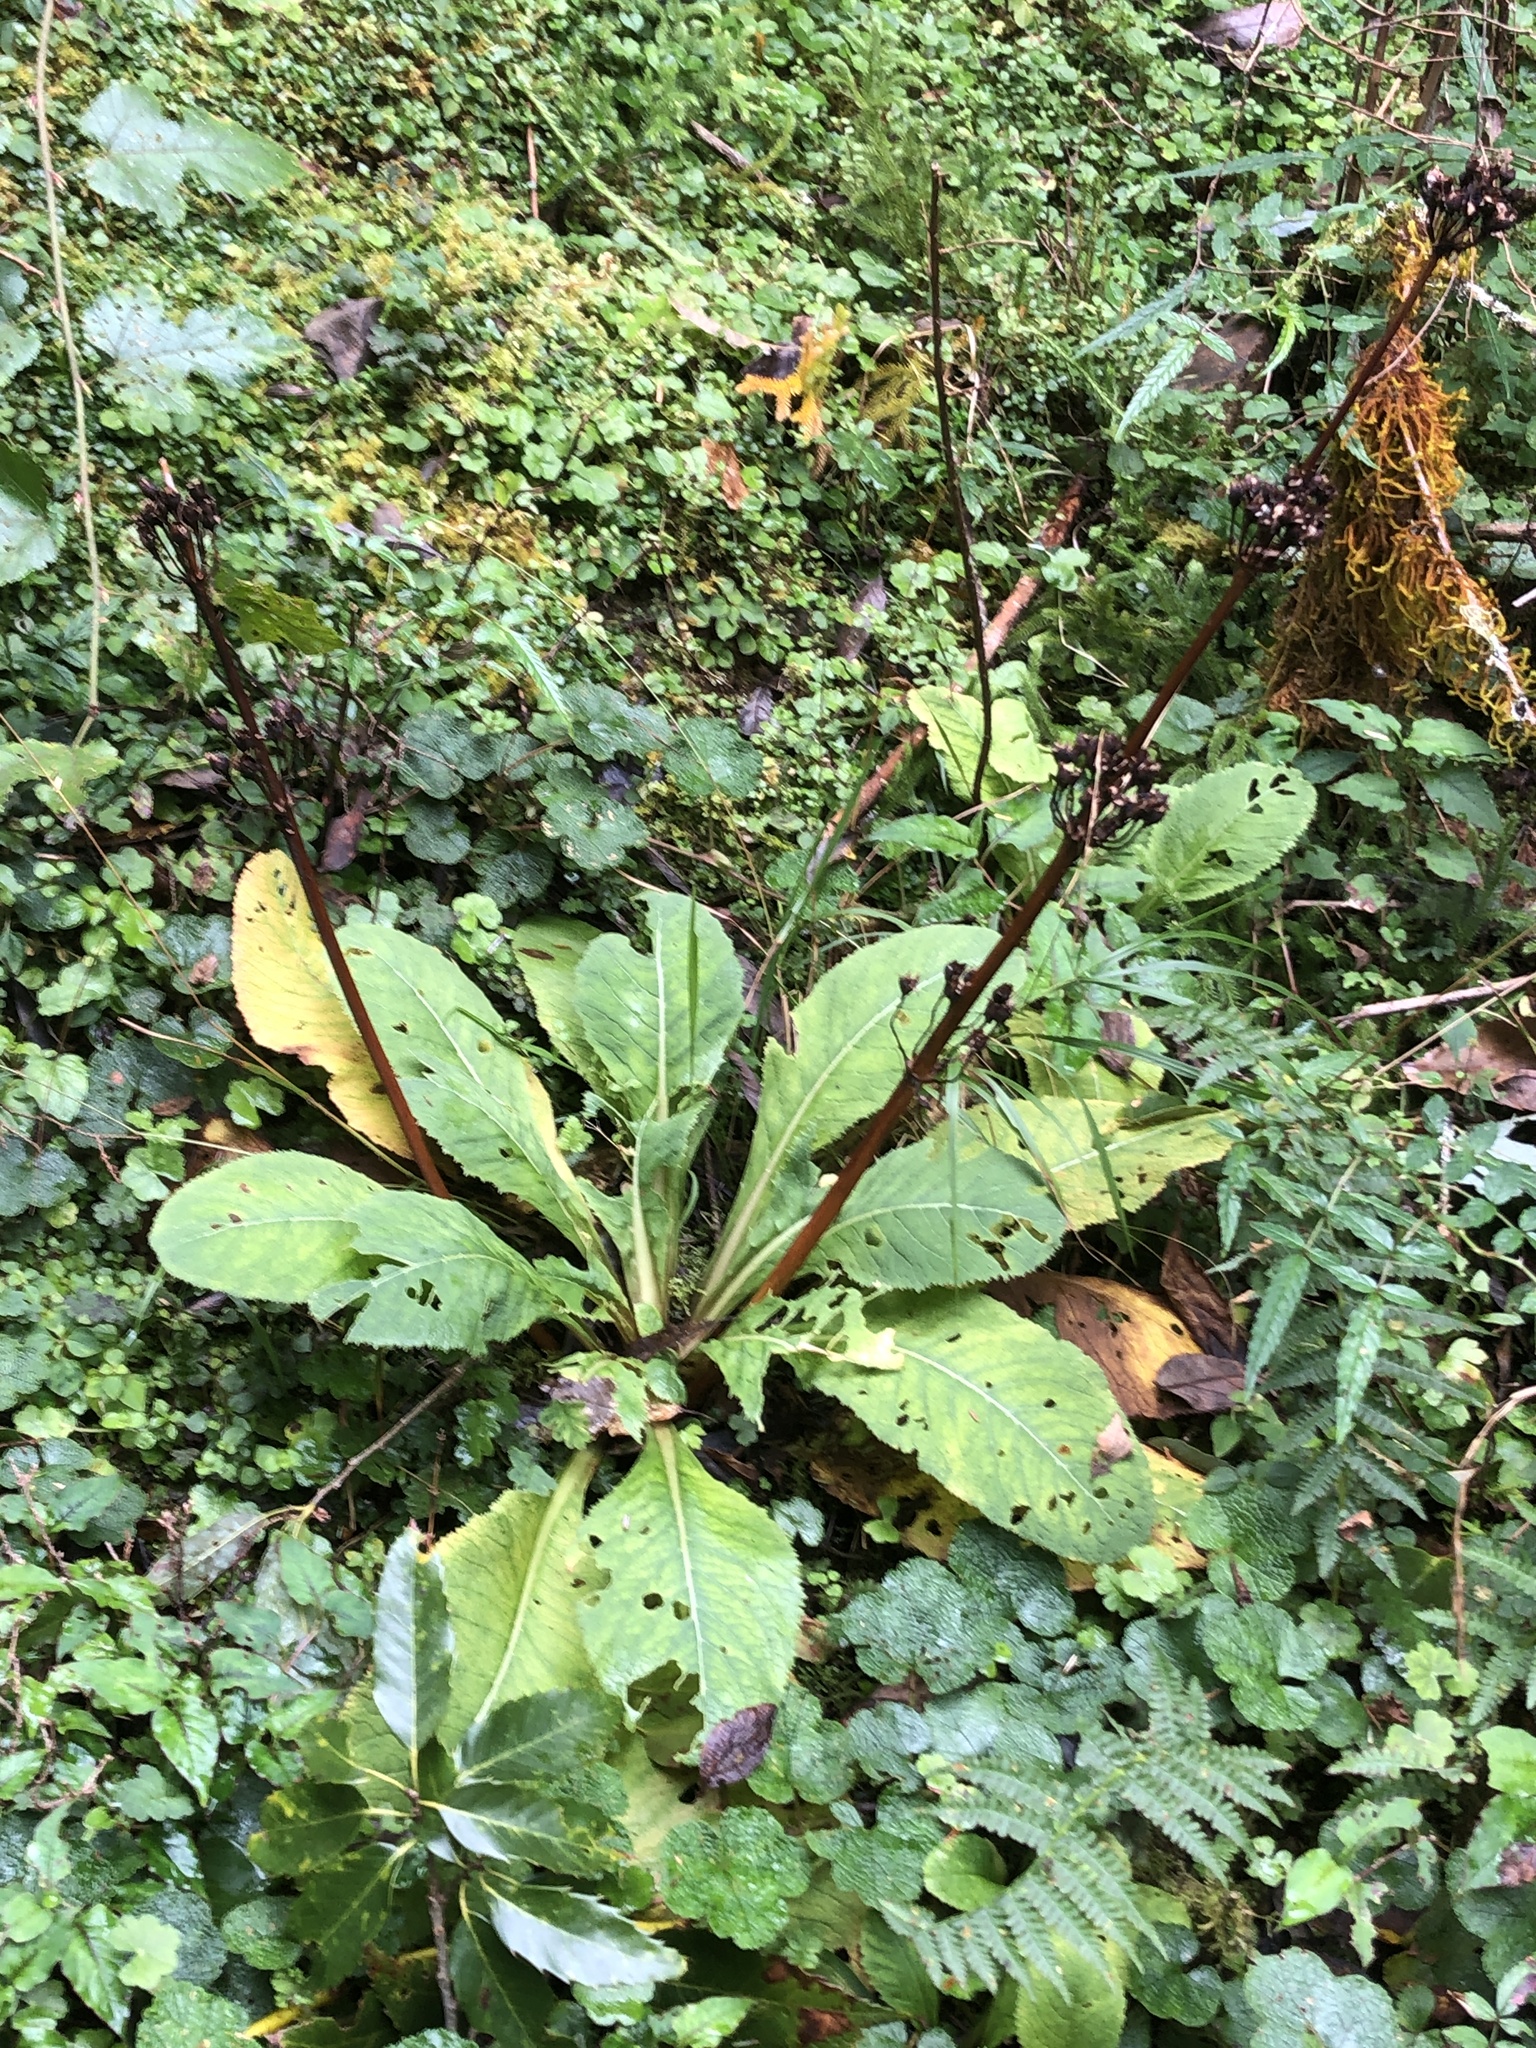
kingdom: Plantae
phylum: Tracheophyta
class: Magnoliopsida
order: Ericales
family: Primulaceae
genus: Primula
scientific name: Primula miyabeana
